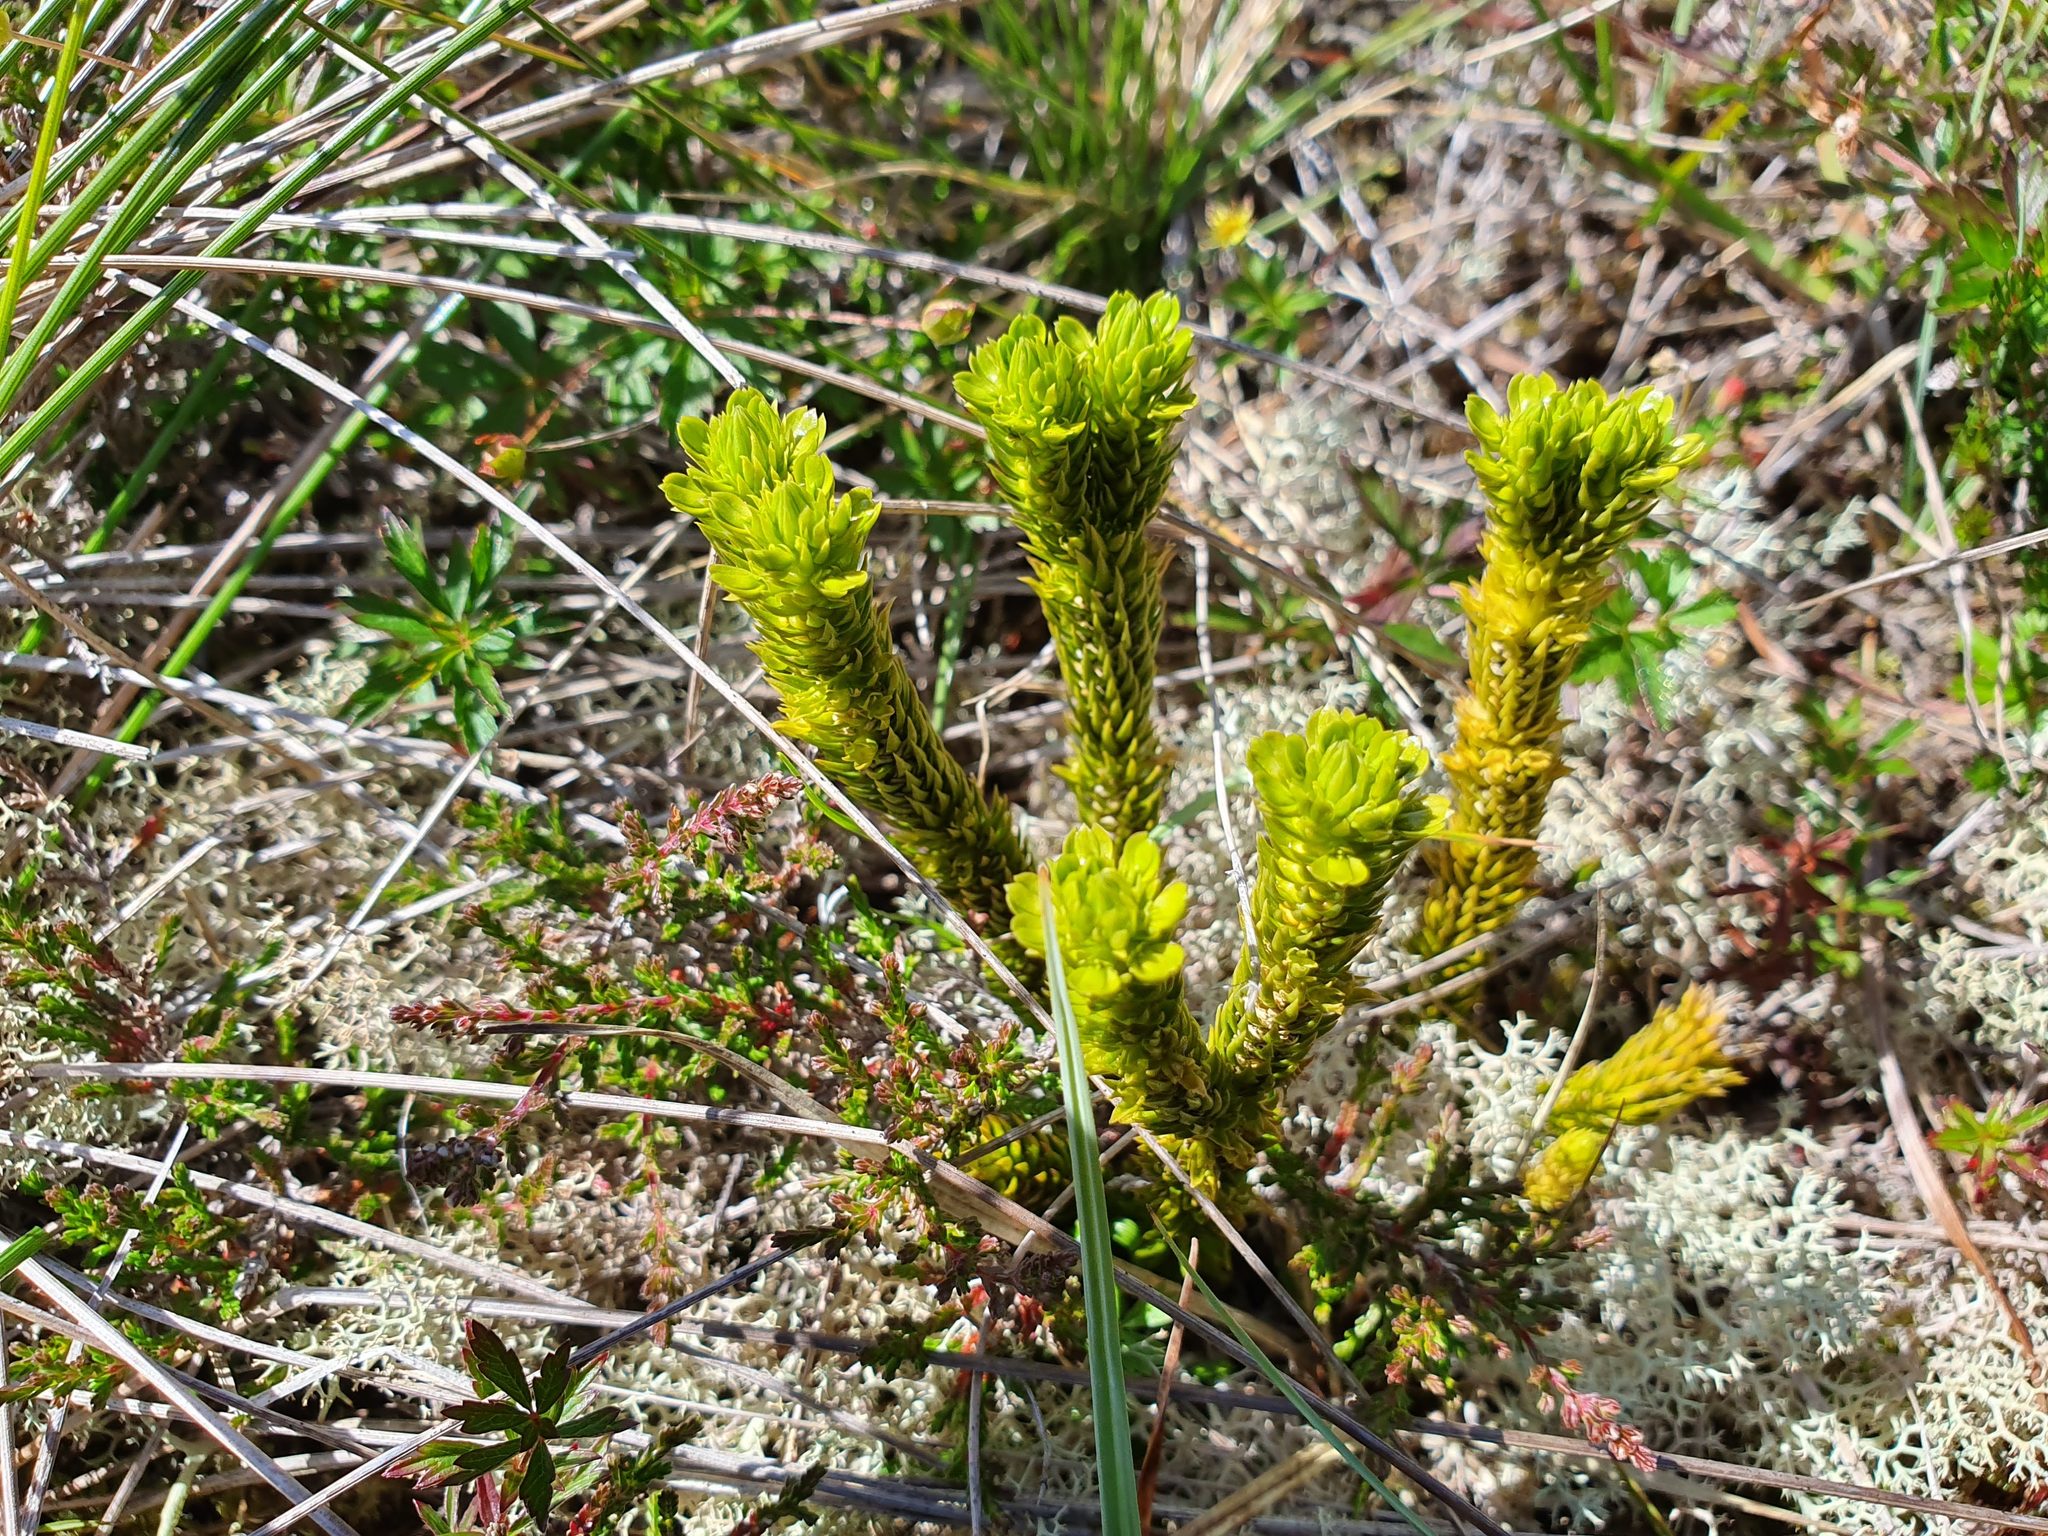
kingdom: Plantae
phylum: Tracheophyta
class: Lycopodiopsida
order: Lycopodiales
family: Lycopodiaceae
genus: Huperzia
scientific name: Huperzia selago
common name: Northern firmoss
